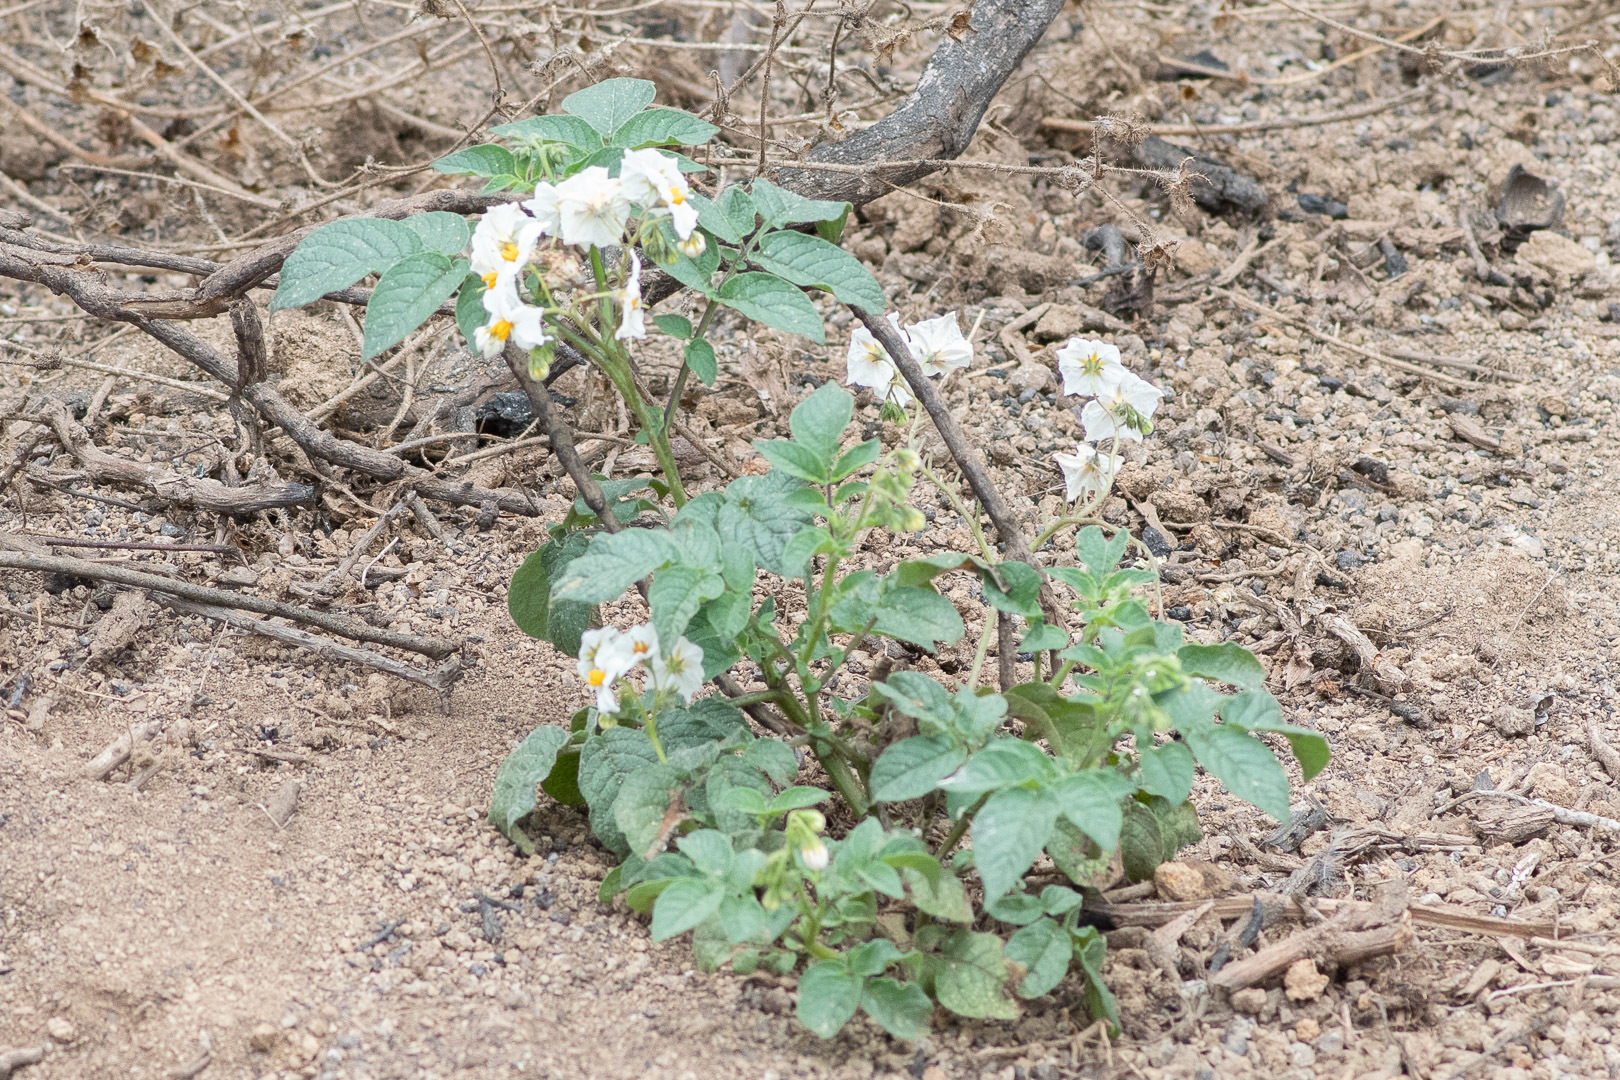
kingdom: Plantae
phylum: Tracheophyta
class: Magnoliopsida
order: Solanales
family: Solanaceae
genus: Solanum
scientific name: Solanum maglia
